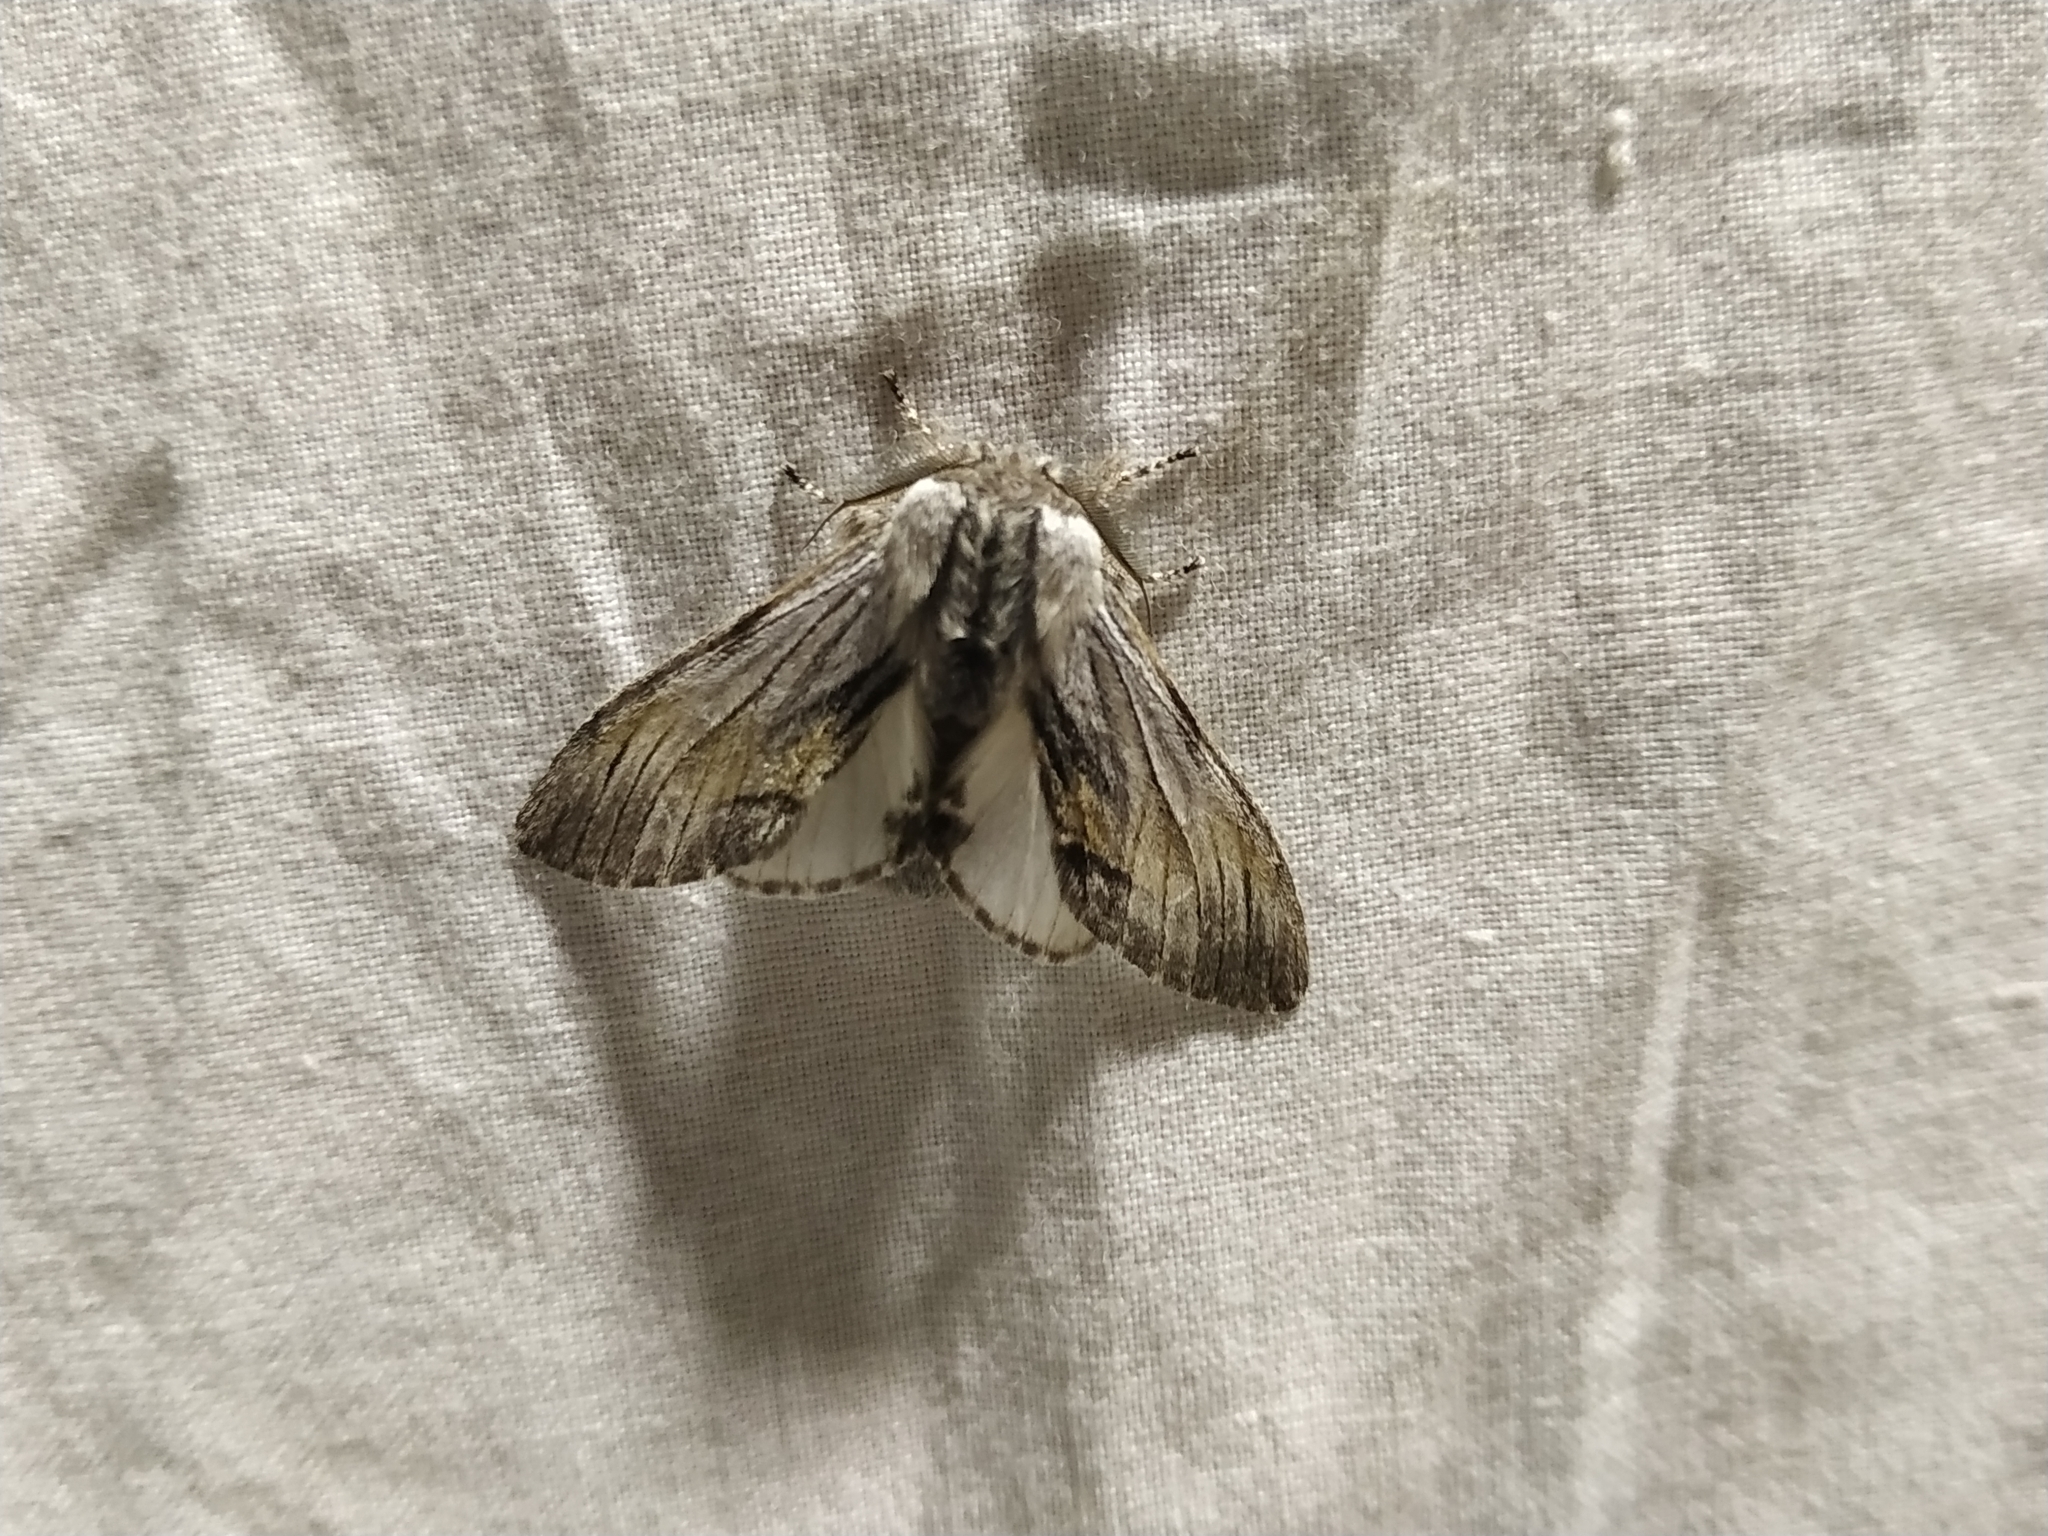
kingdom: Animalia
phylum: Arthropoda
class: Insecta
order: Lepidoptera
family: Notodontidae
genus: Harpyia
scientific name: Harpyia milhauseri
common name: Tawny prominent
